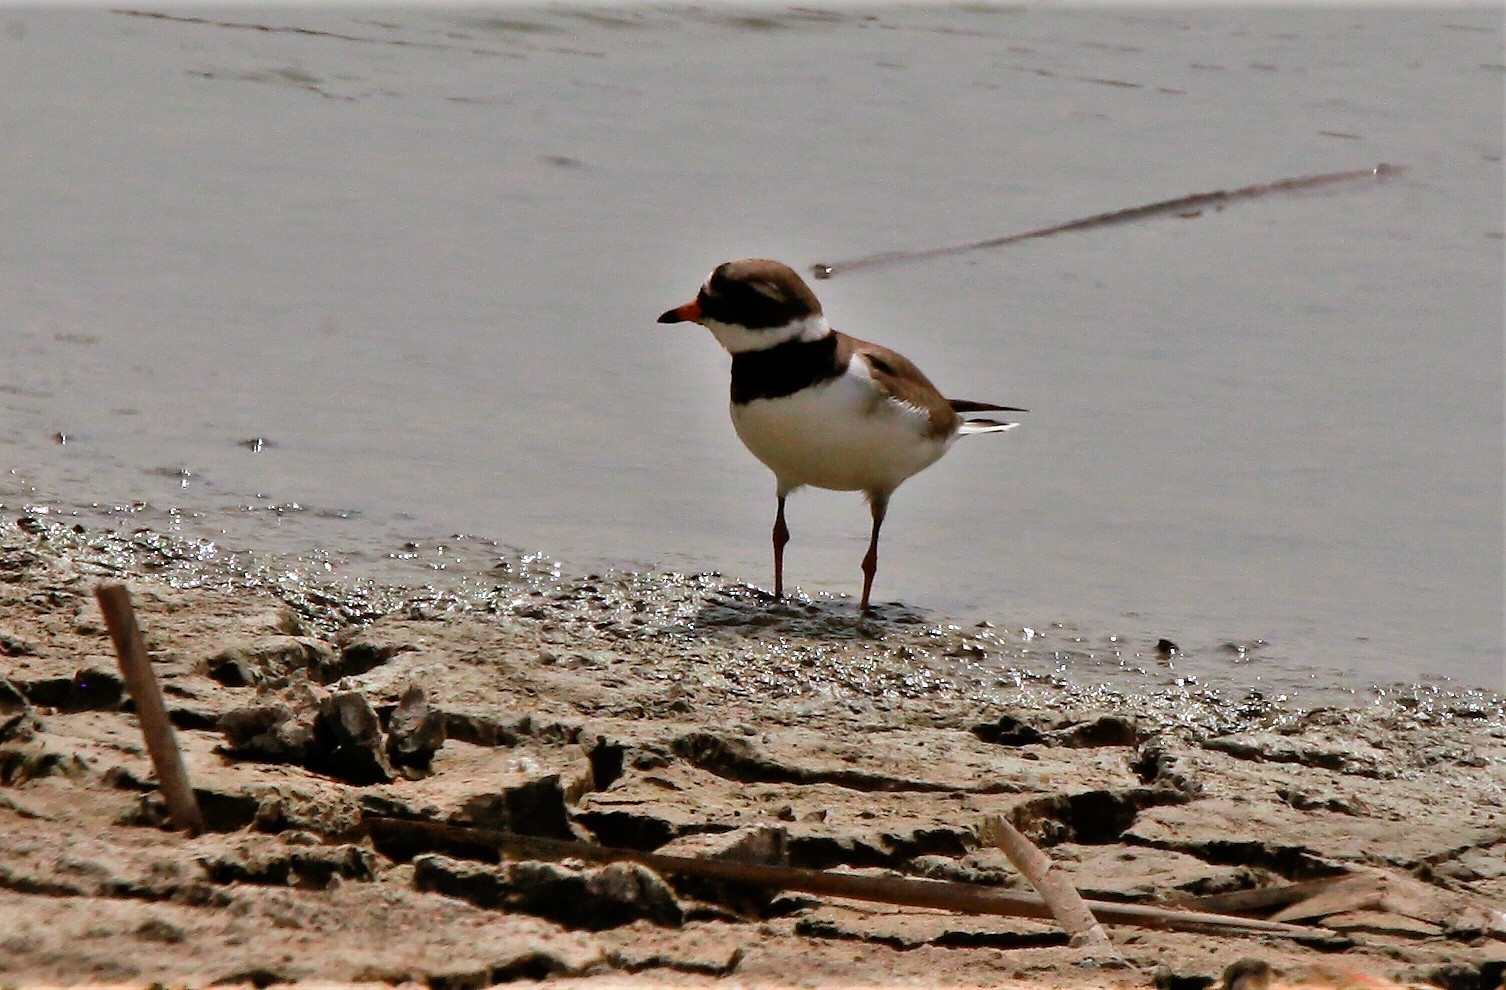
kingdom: Animalia
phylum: Chordata
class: Aves
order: Charadriiformes
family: Charadriidae
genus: Charadrius
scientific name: Charadrius hiaticula
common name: Common ringed plover
